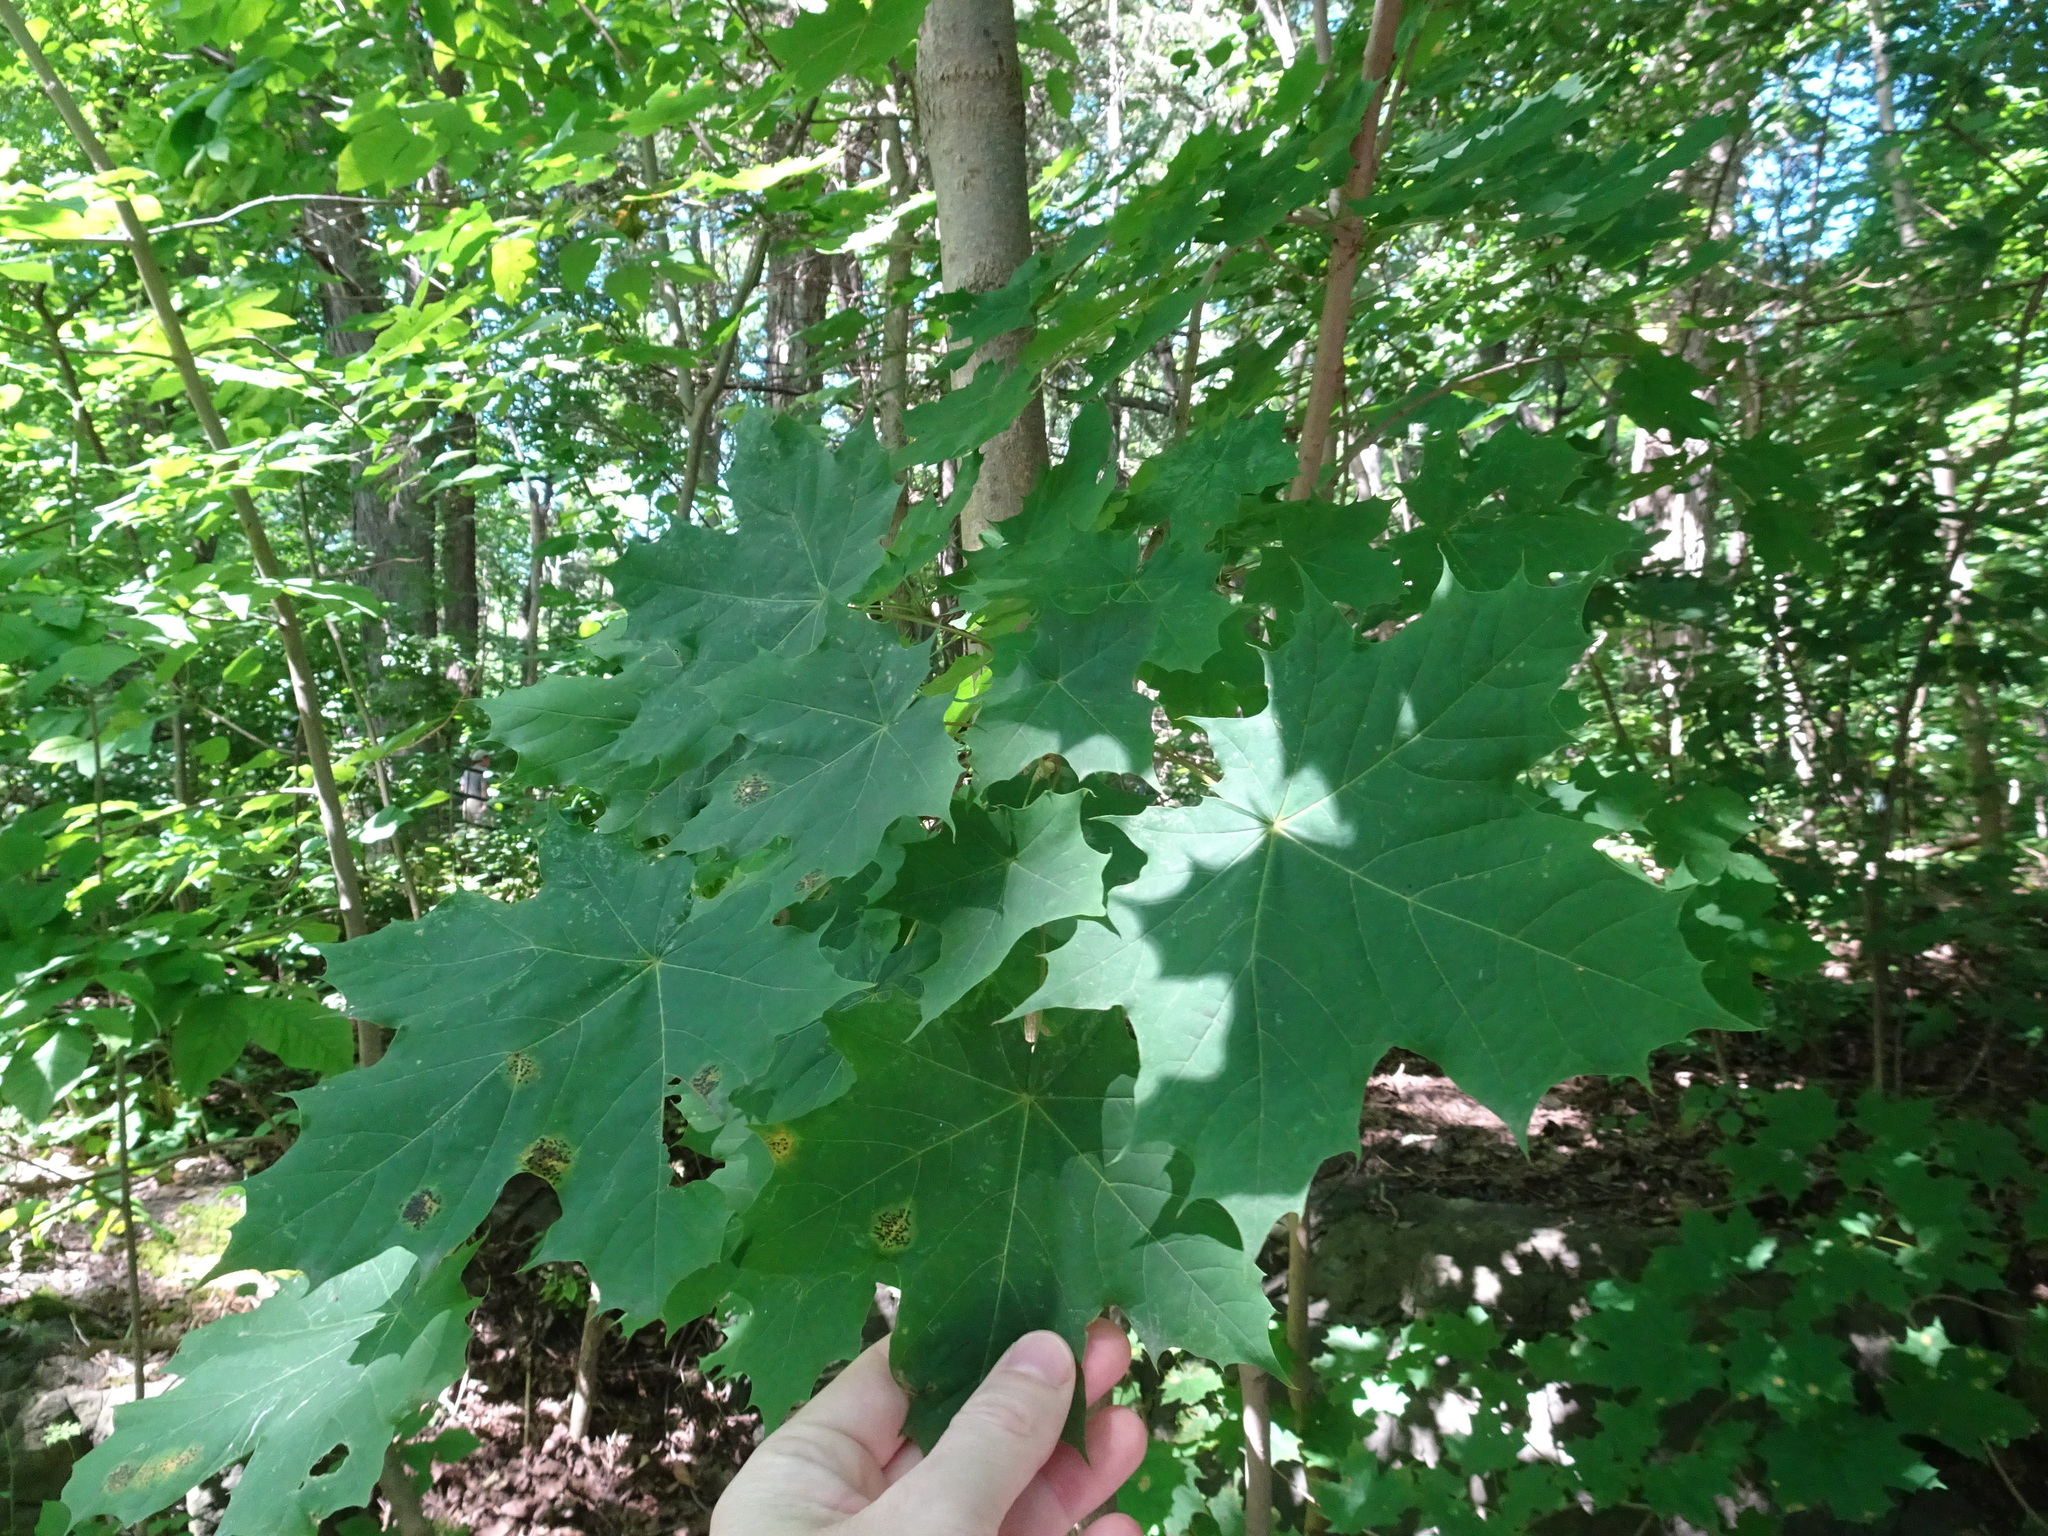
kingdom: Plantae
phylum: Tracheophyta
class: Magnoliopsida
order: Sapindales
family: Sapindaceae
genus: Acer
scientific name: Acer platanoides
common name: Norway maple
